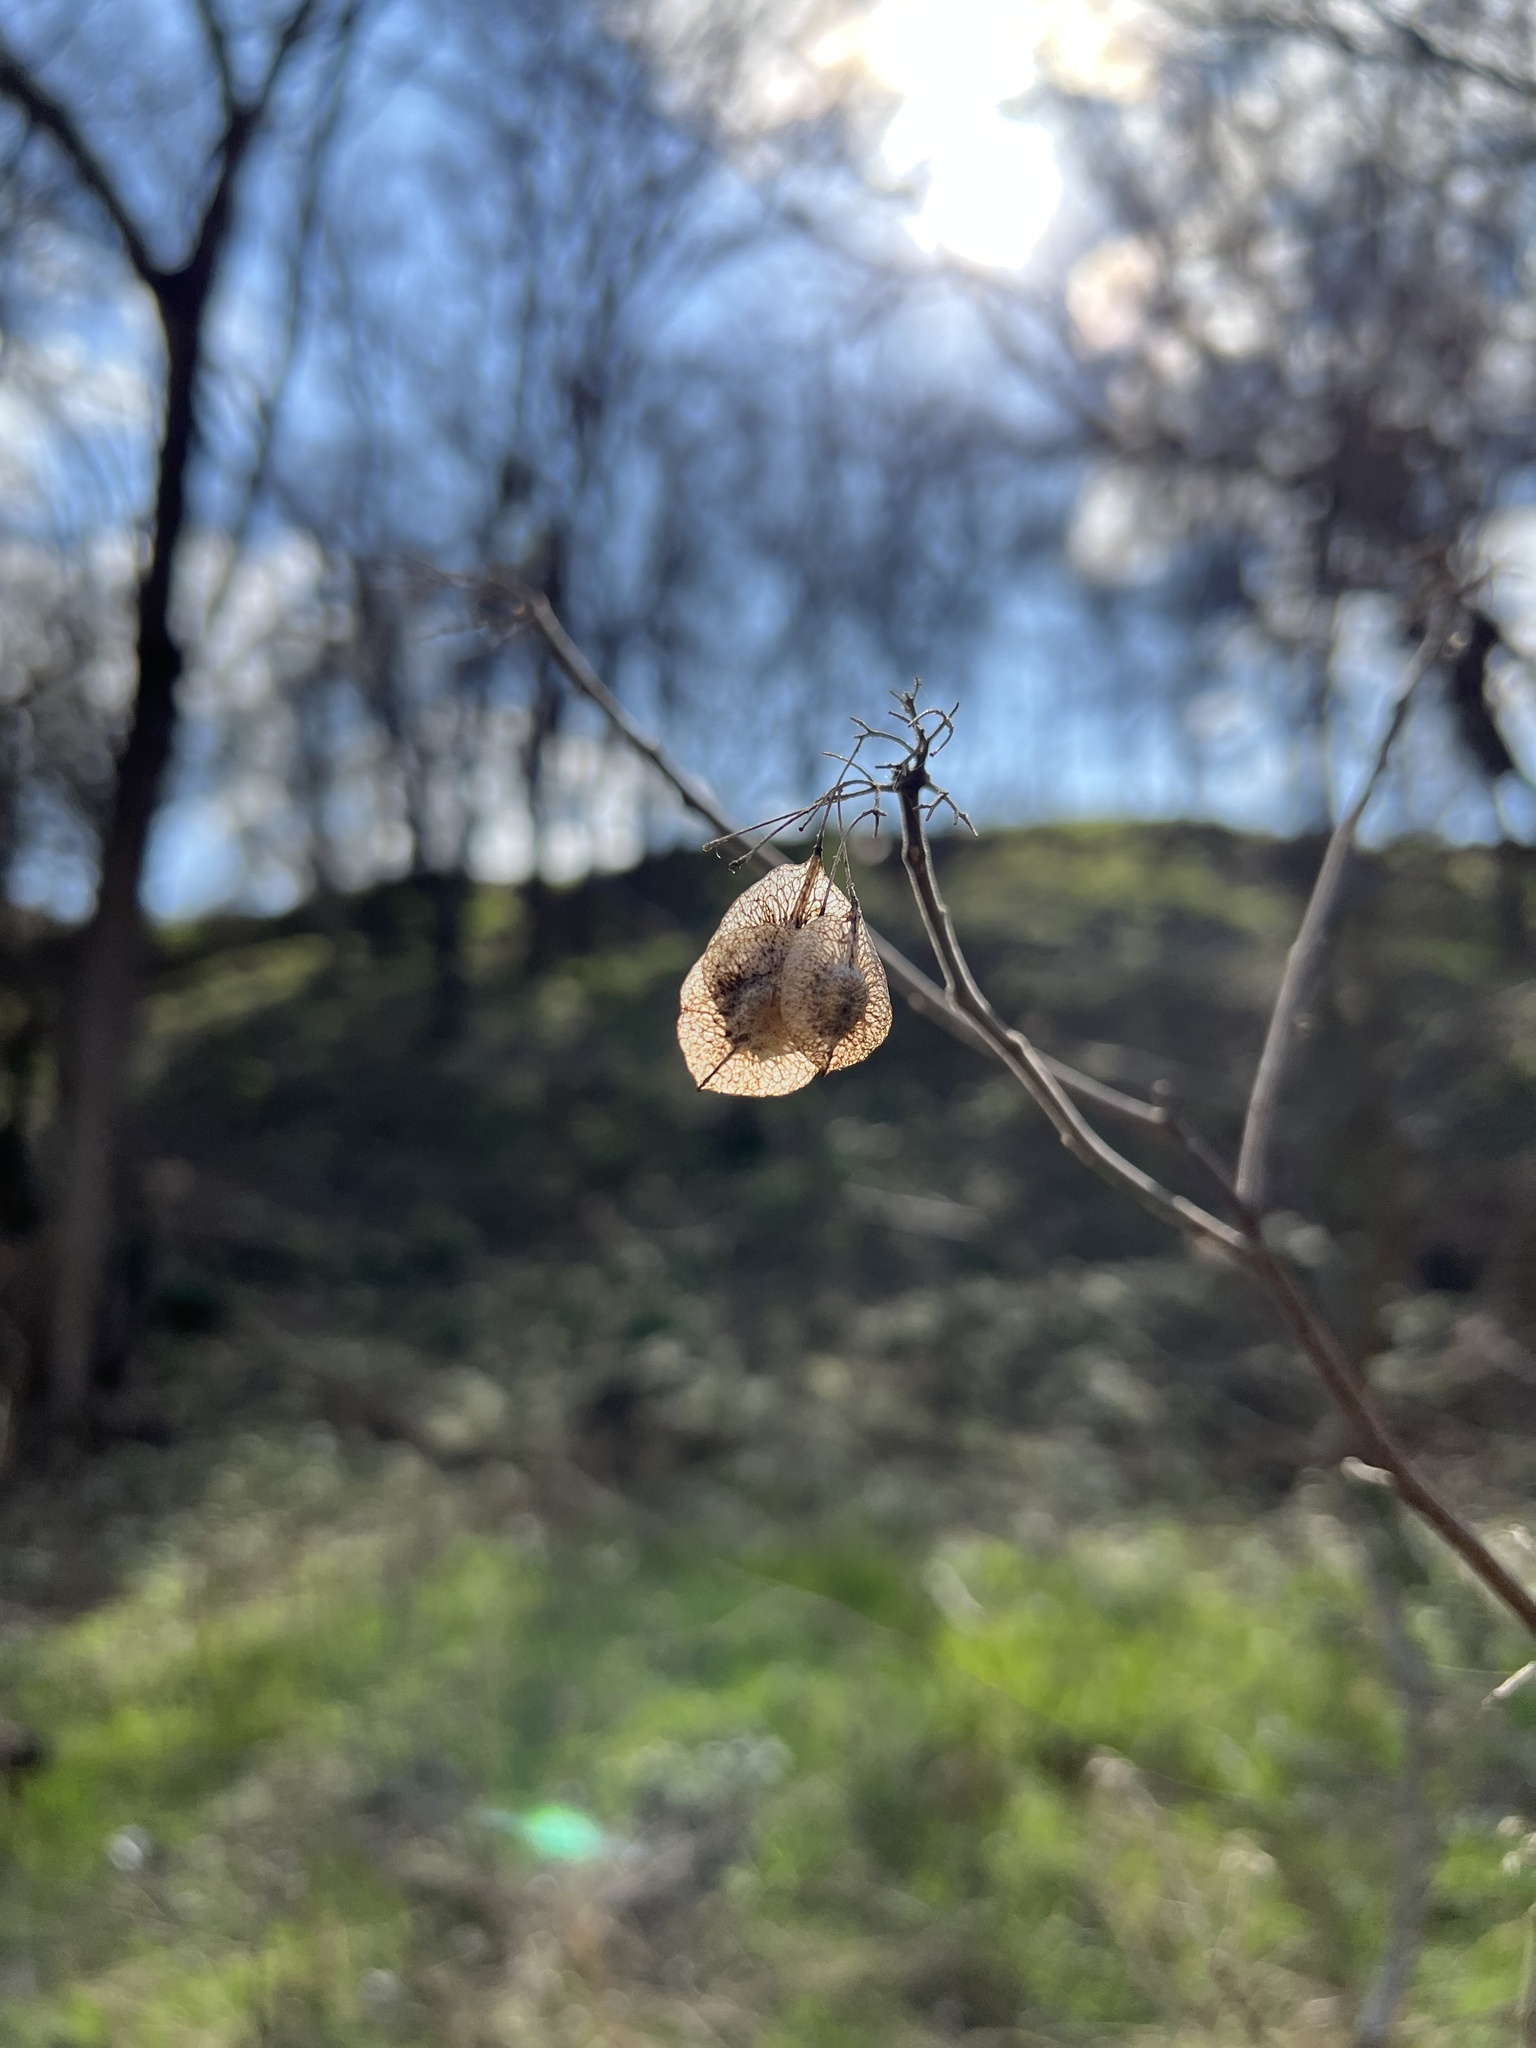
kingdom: Plantae
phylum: Tracheophyta
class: Magnoliopsida
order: Sapindales
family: Rutaceae
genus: Ptelea
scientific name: Ptelea trifoliata
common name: Common hop-tree
